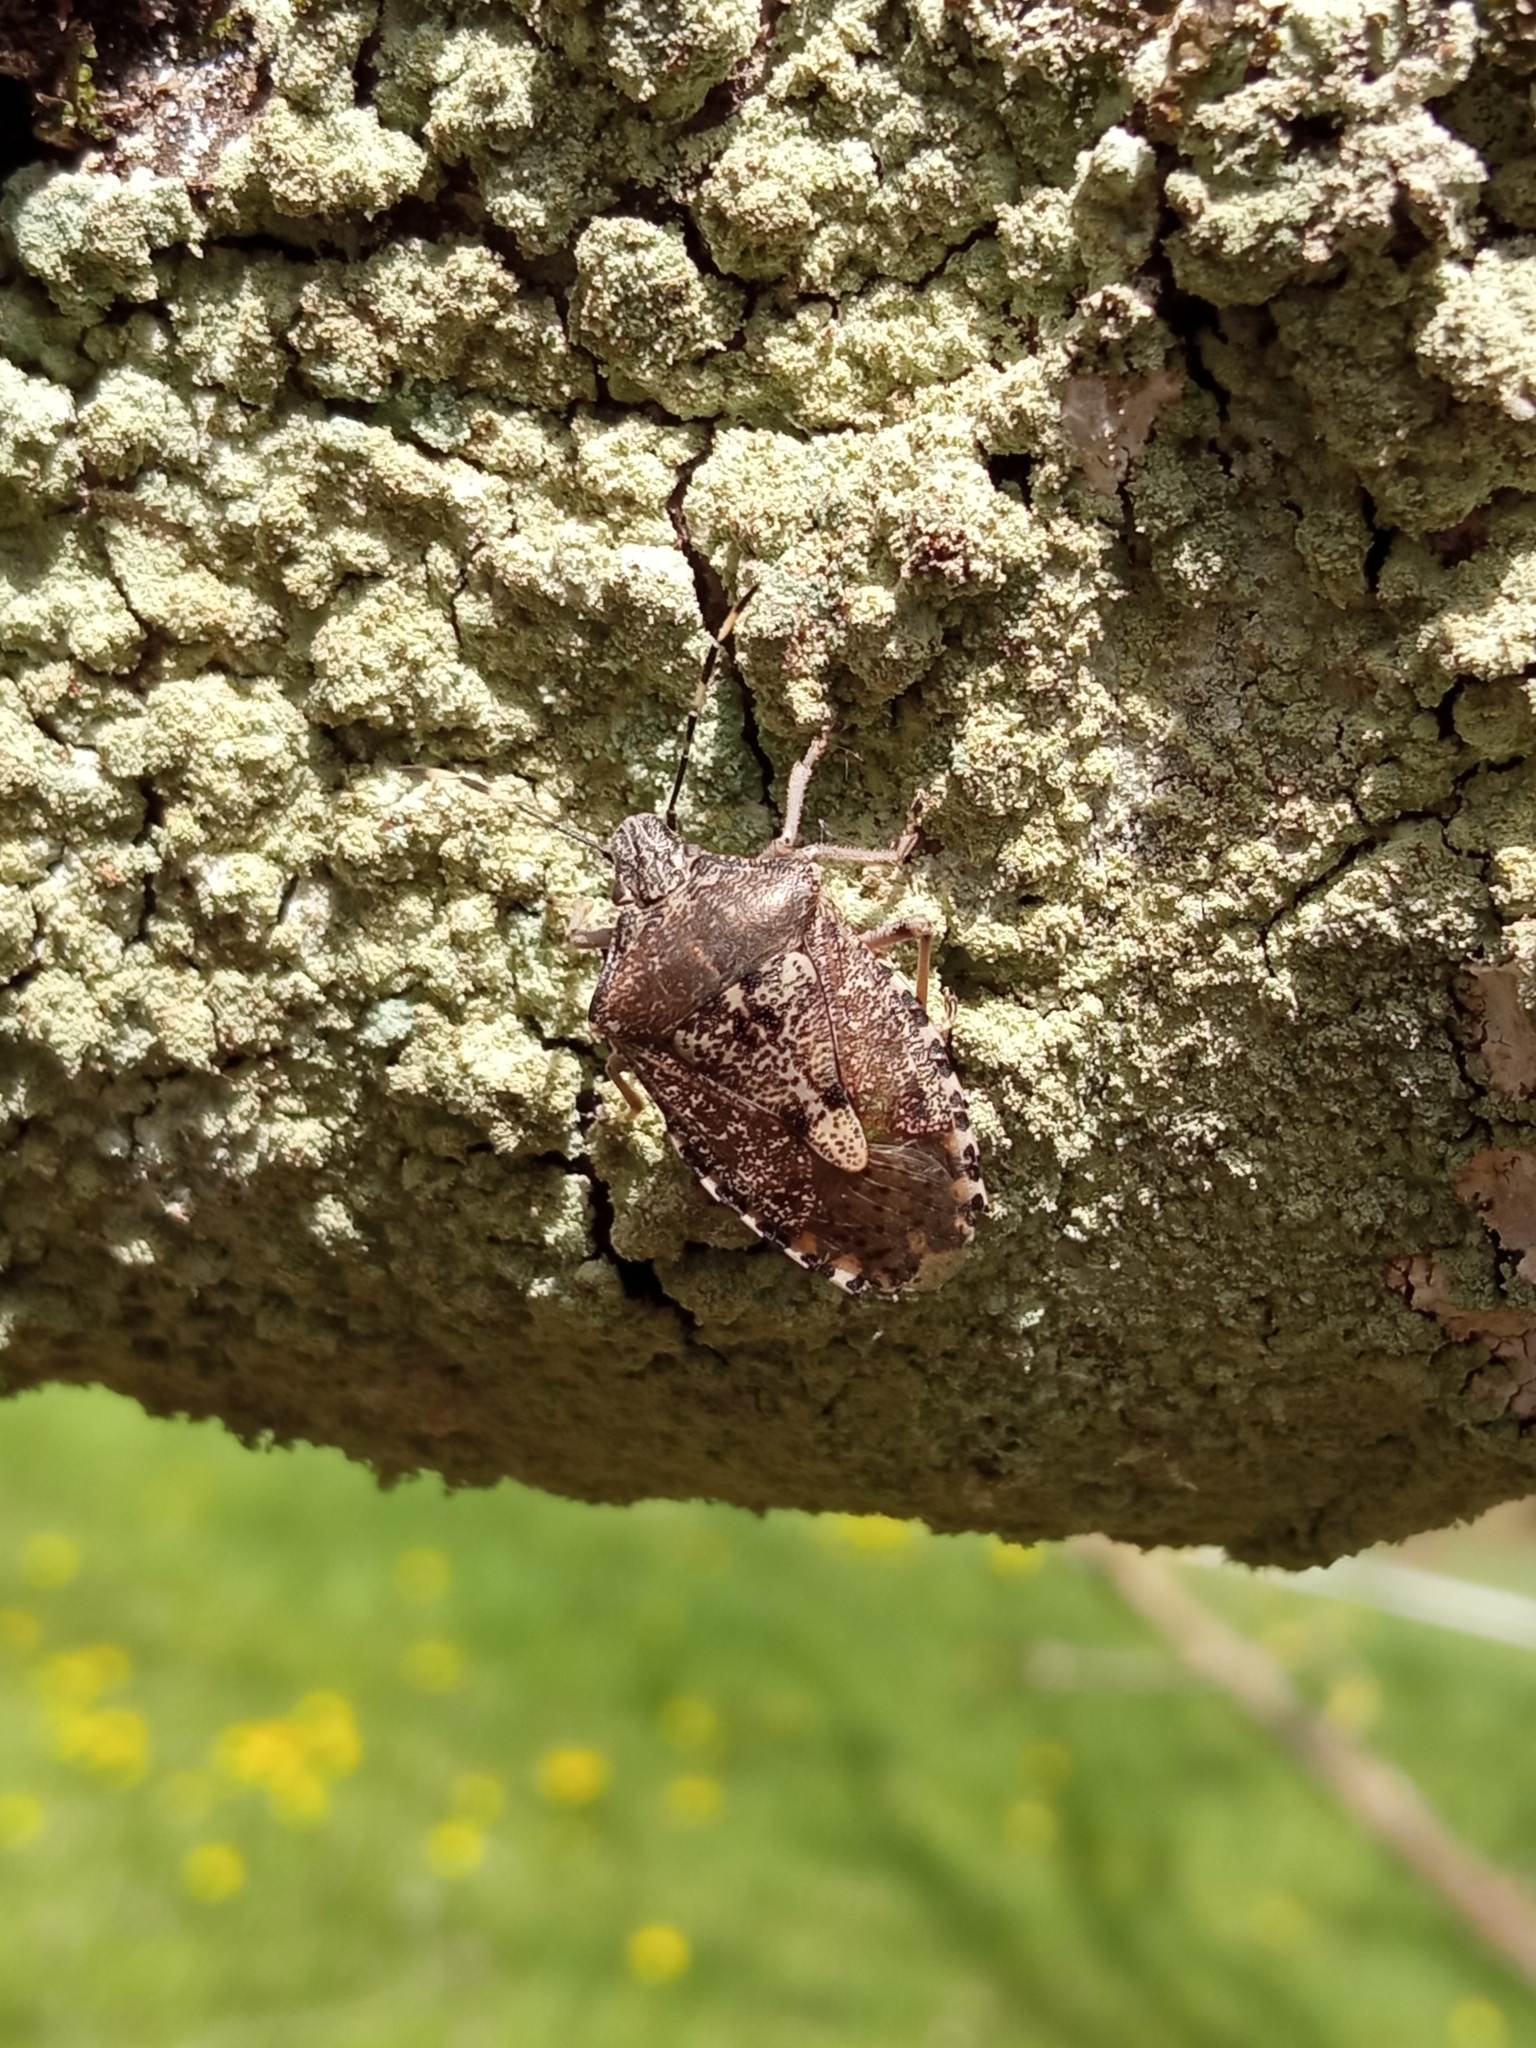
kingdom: Animalia
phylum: Arthropoda
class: Insecta
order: Hemiptera
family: Pentatomidae
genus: Rhaphigaster
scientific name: Rhaphigaster nebulosa
